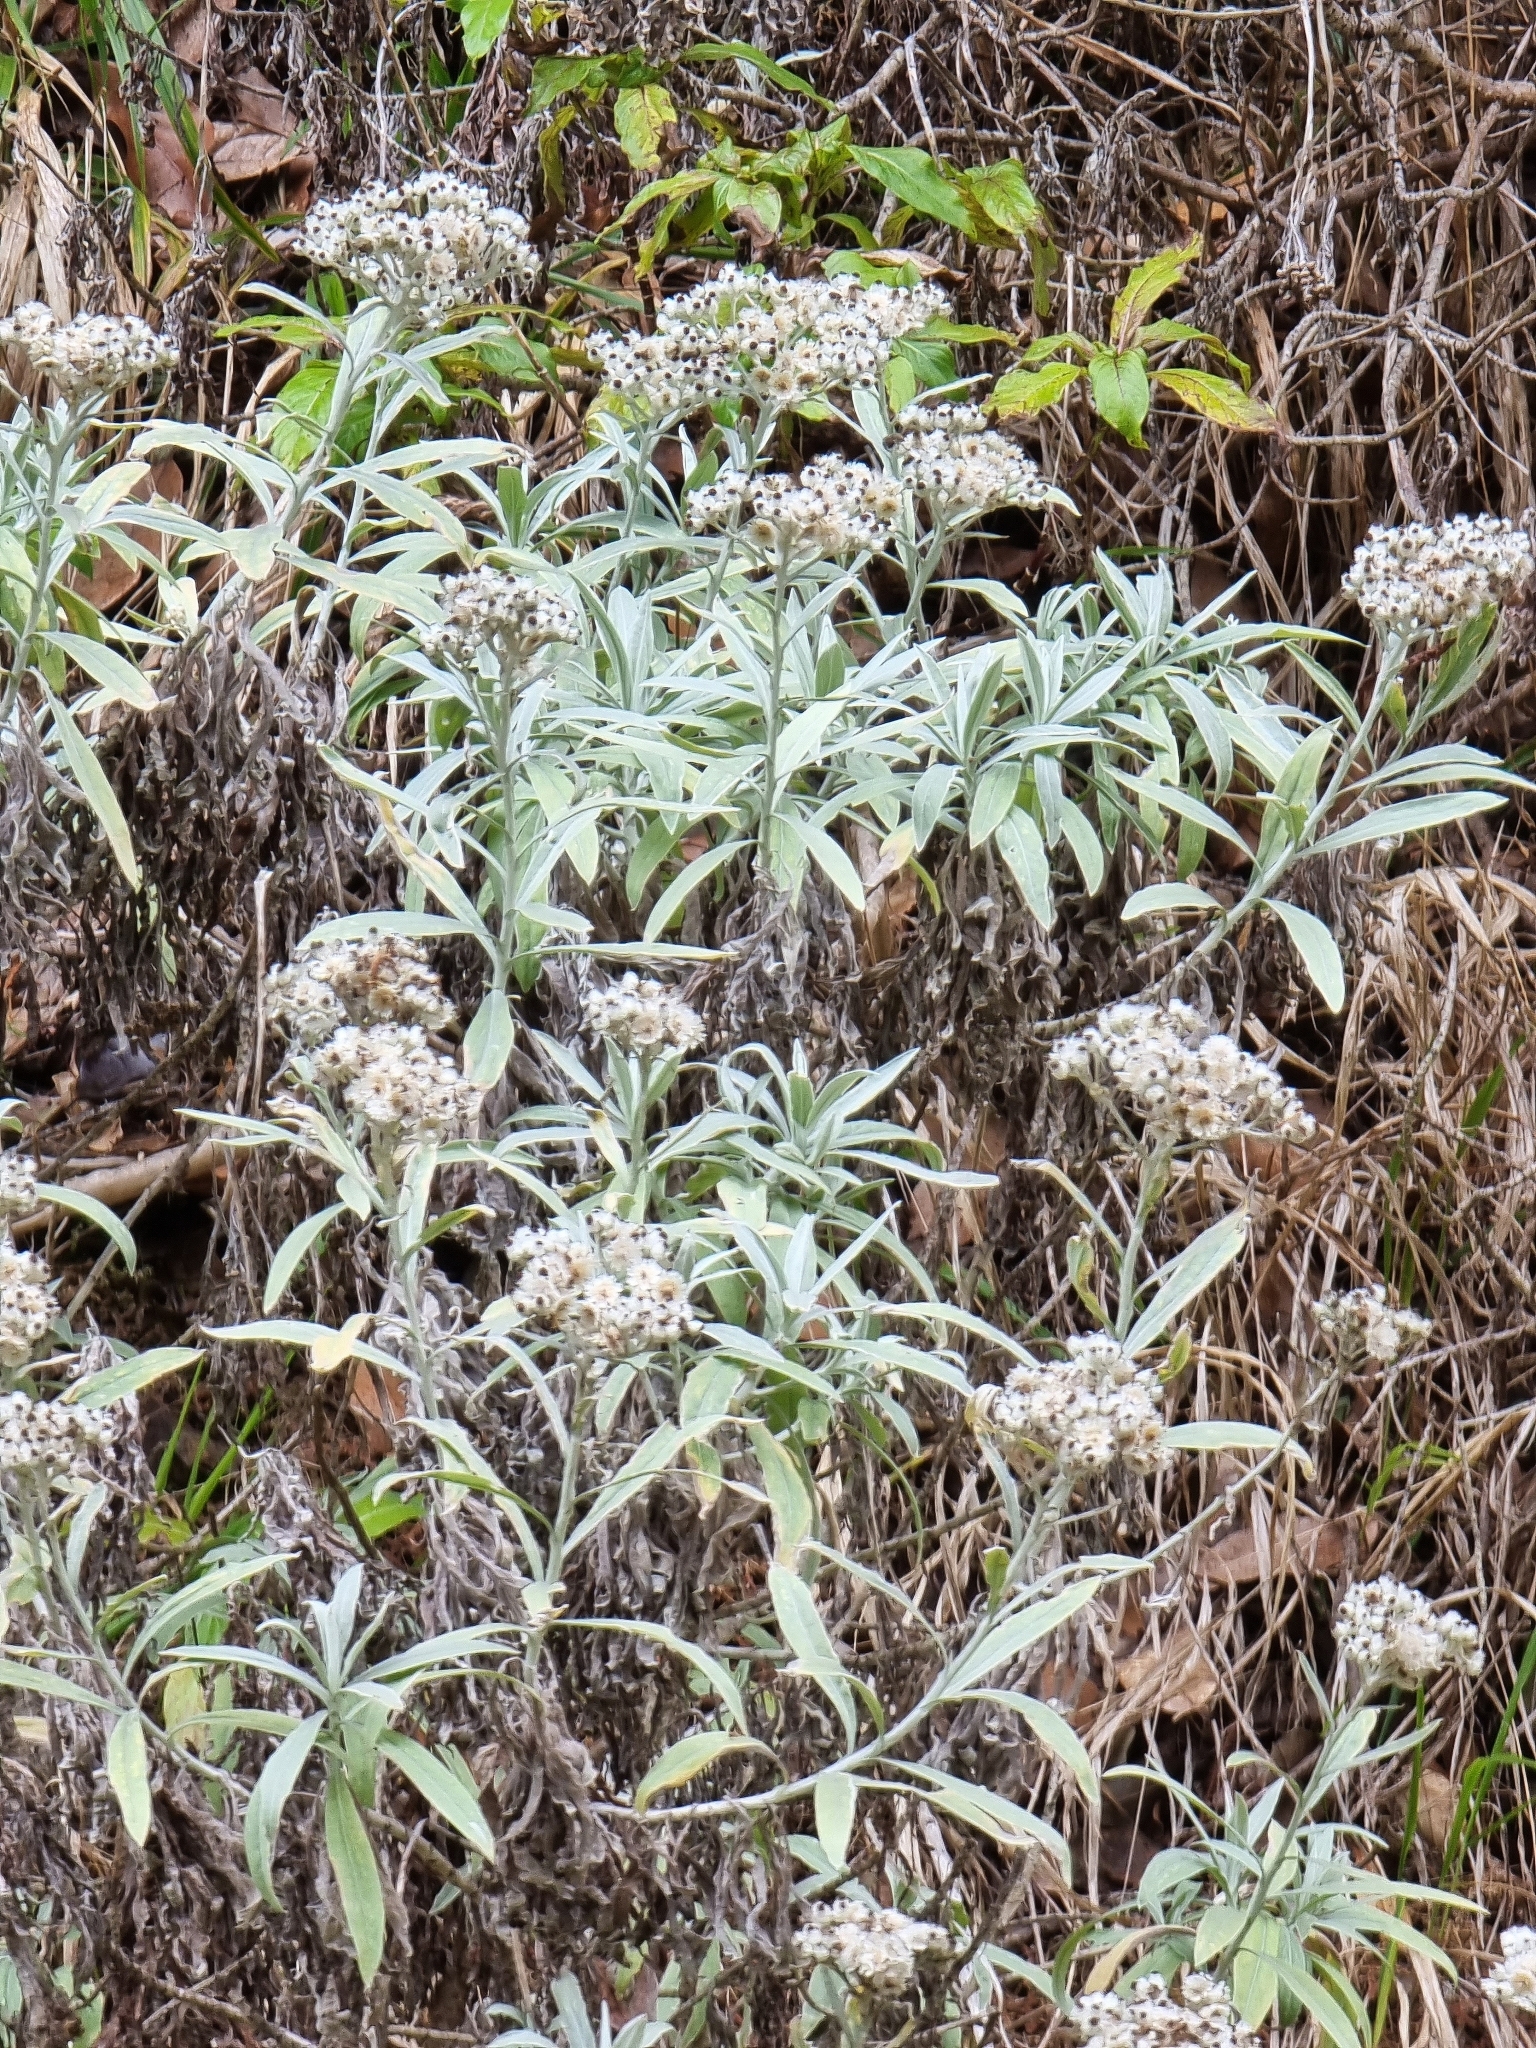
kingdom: Plantae
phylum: Tracheophyta
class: Magnoliopsida
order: Asterales
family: Asteraceae
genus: Helichrysum
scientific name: Helichrysum melaleucum
